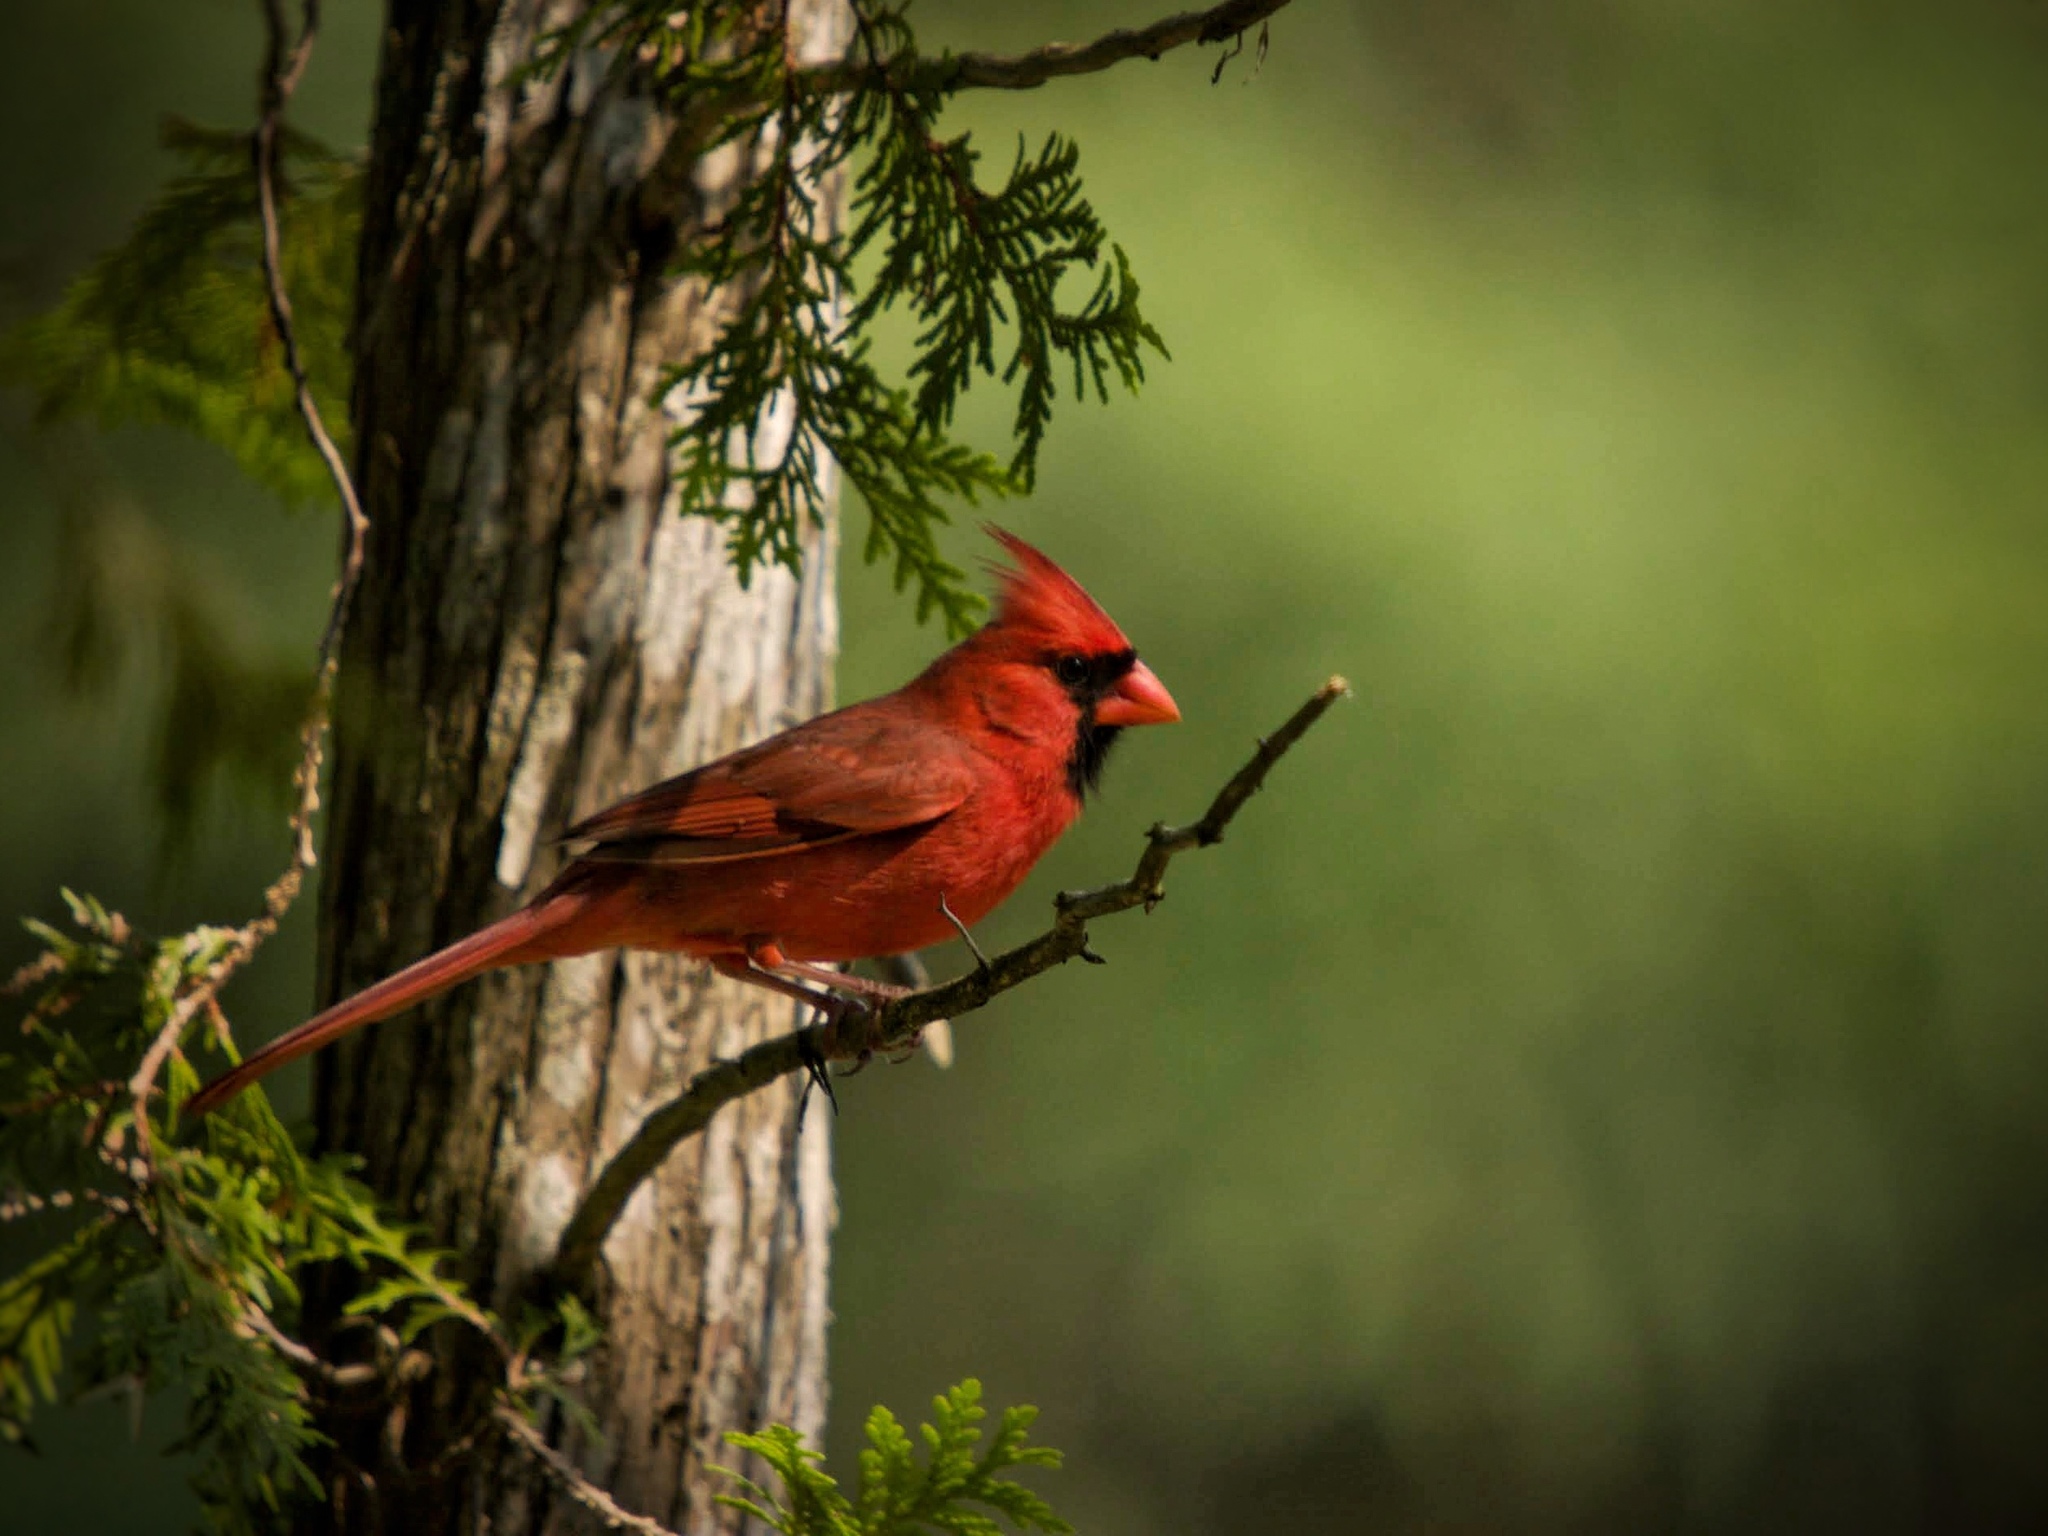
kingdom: Animalia
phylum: Chordata
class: Aves
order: Passeriformes
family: Cardinalidae
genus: Cardinalis
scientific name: Cardinalis cardinalis
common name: Northern cardinal
